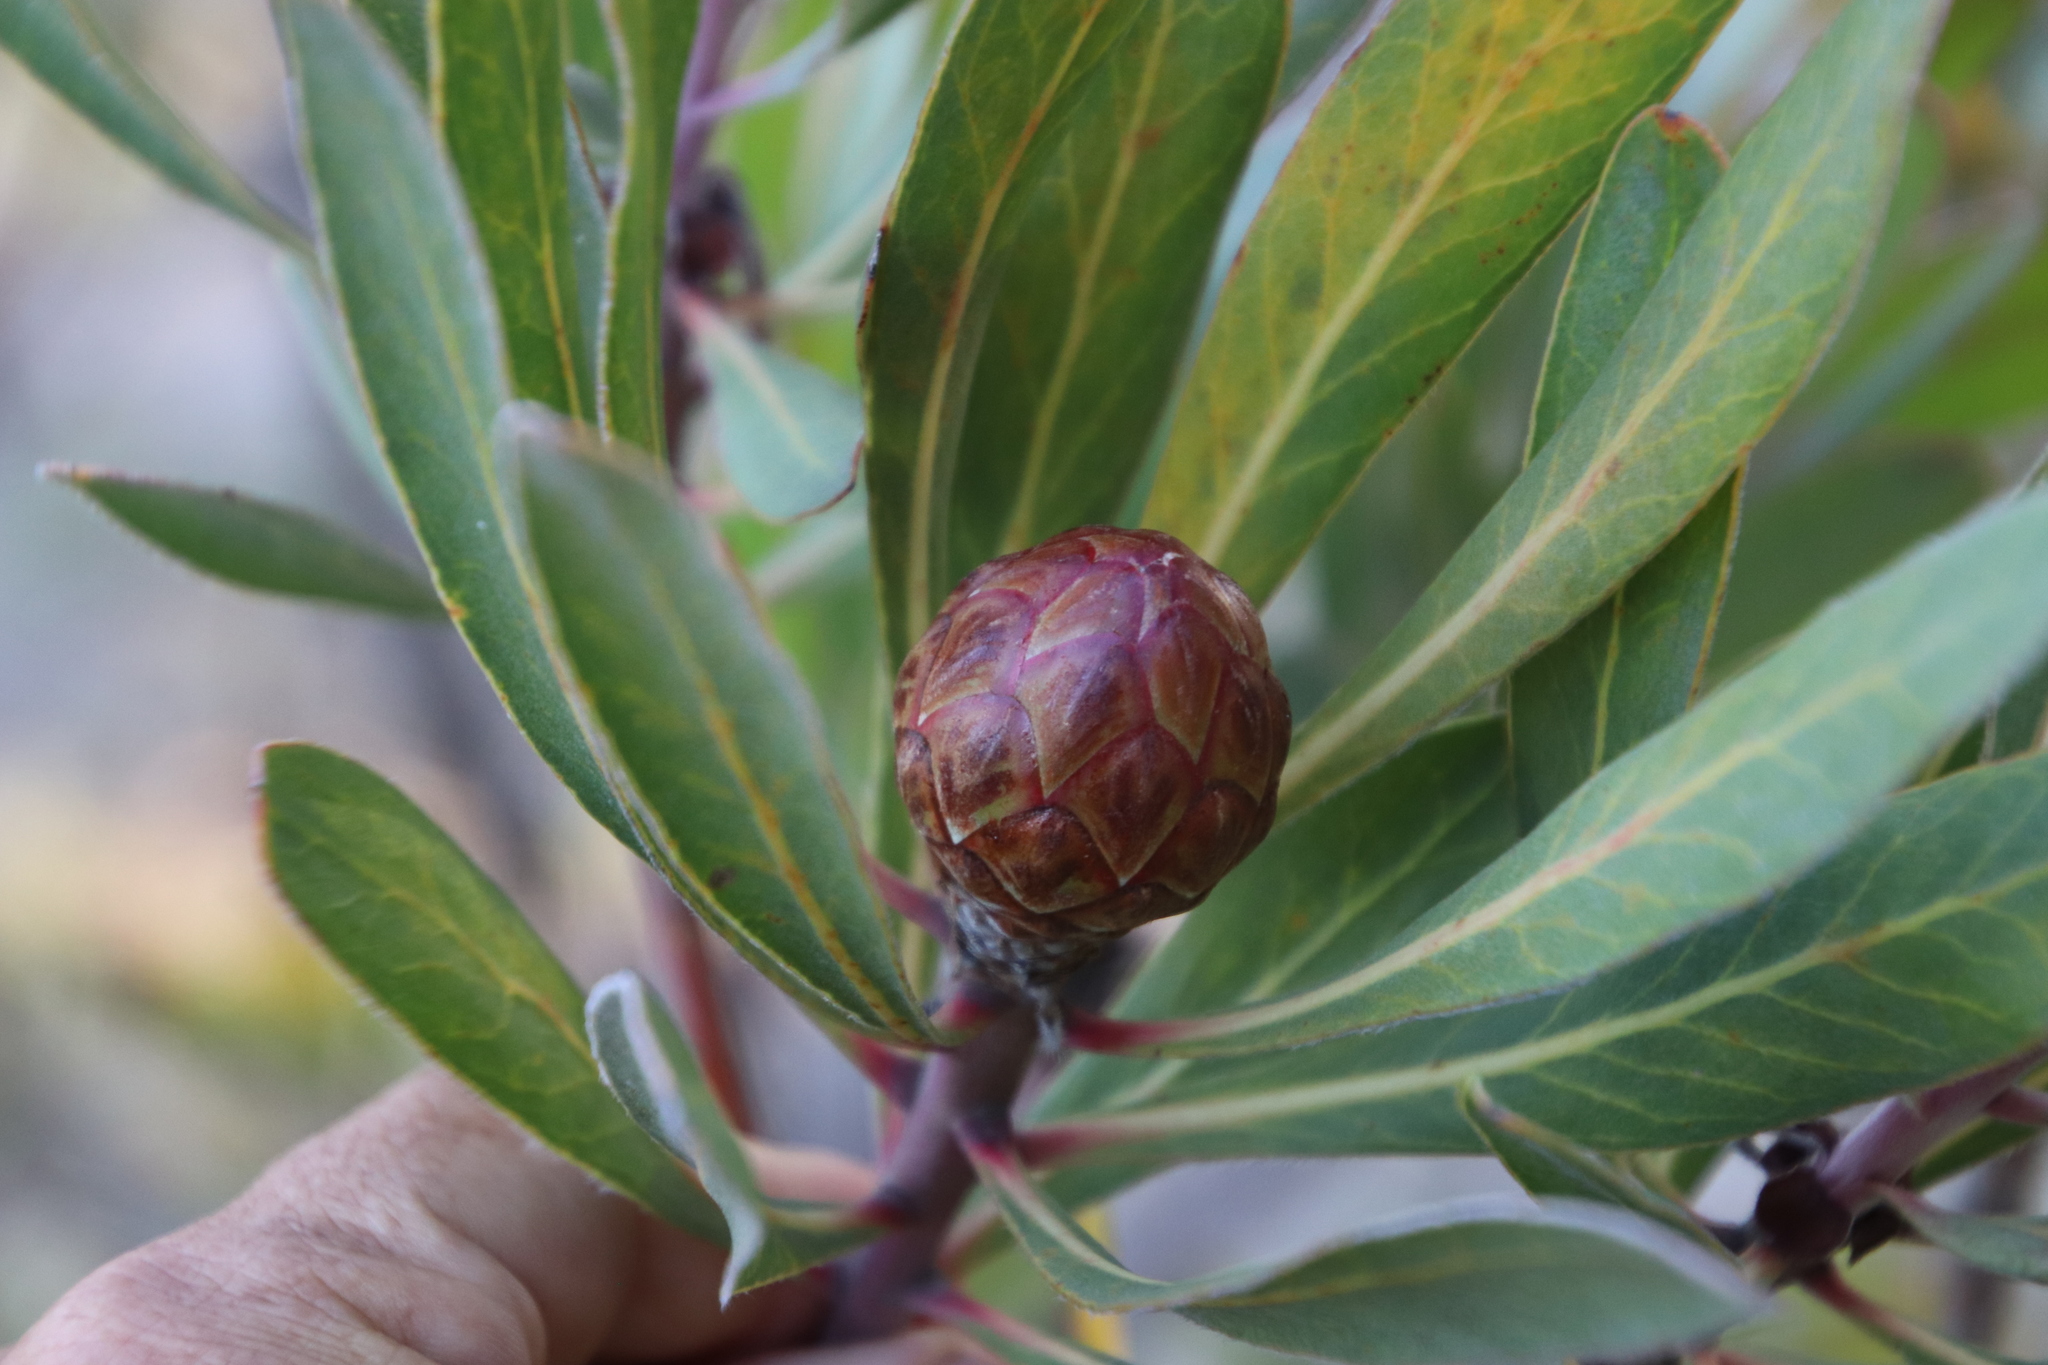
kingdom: Plantae
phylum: Tracheophyta
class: Magnoliopsida
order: Proteales
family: Proteaceae
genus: Protea
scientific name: Protea susannae
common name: Foetid-leaf sugarbush
